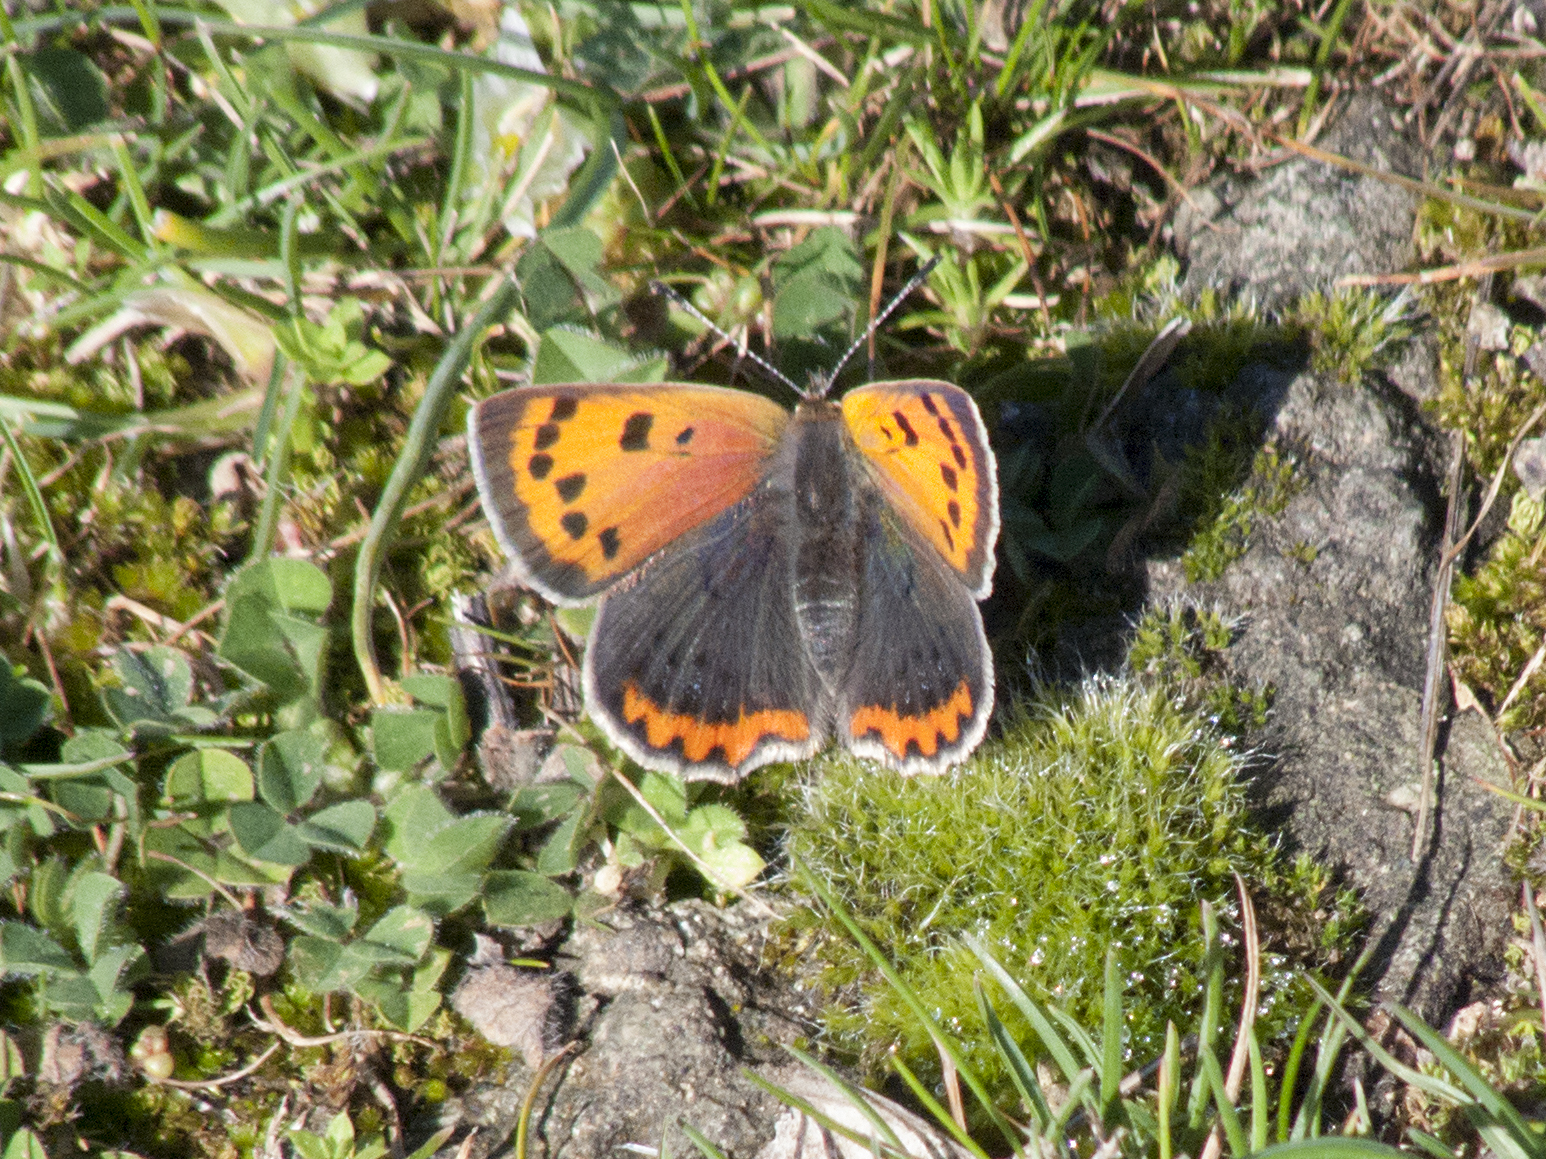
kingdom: Animalia
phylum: Arthropoda
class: Insecta
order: Lepidoptera
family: Lycaenidae
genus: Lycaena
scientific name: Lycaena phlaeas
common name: Small copper
